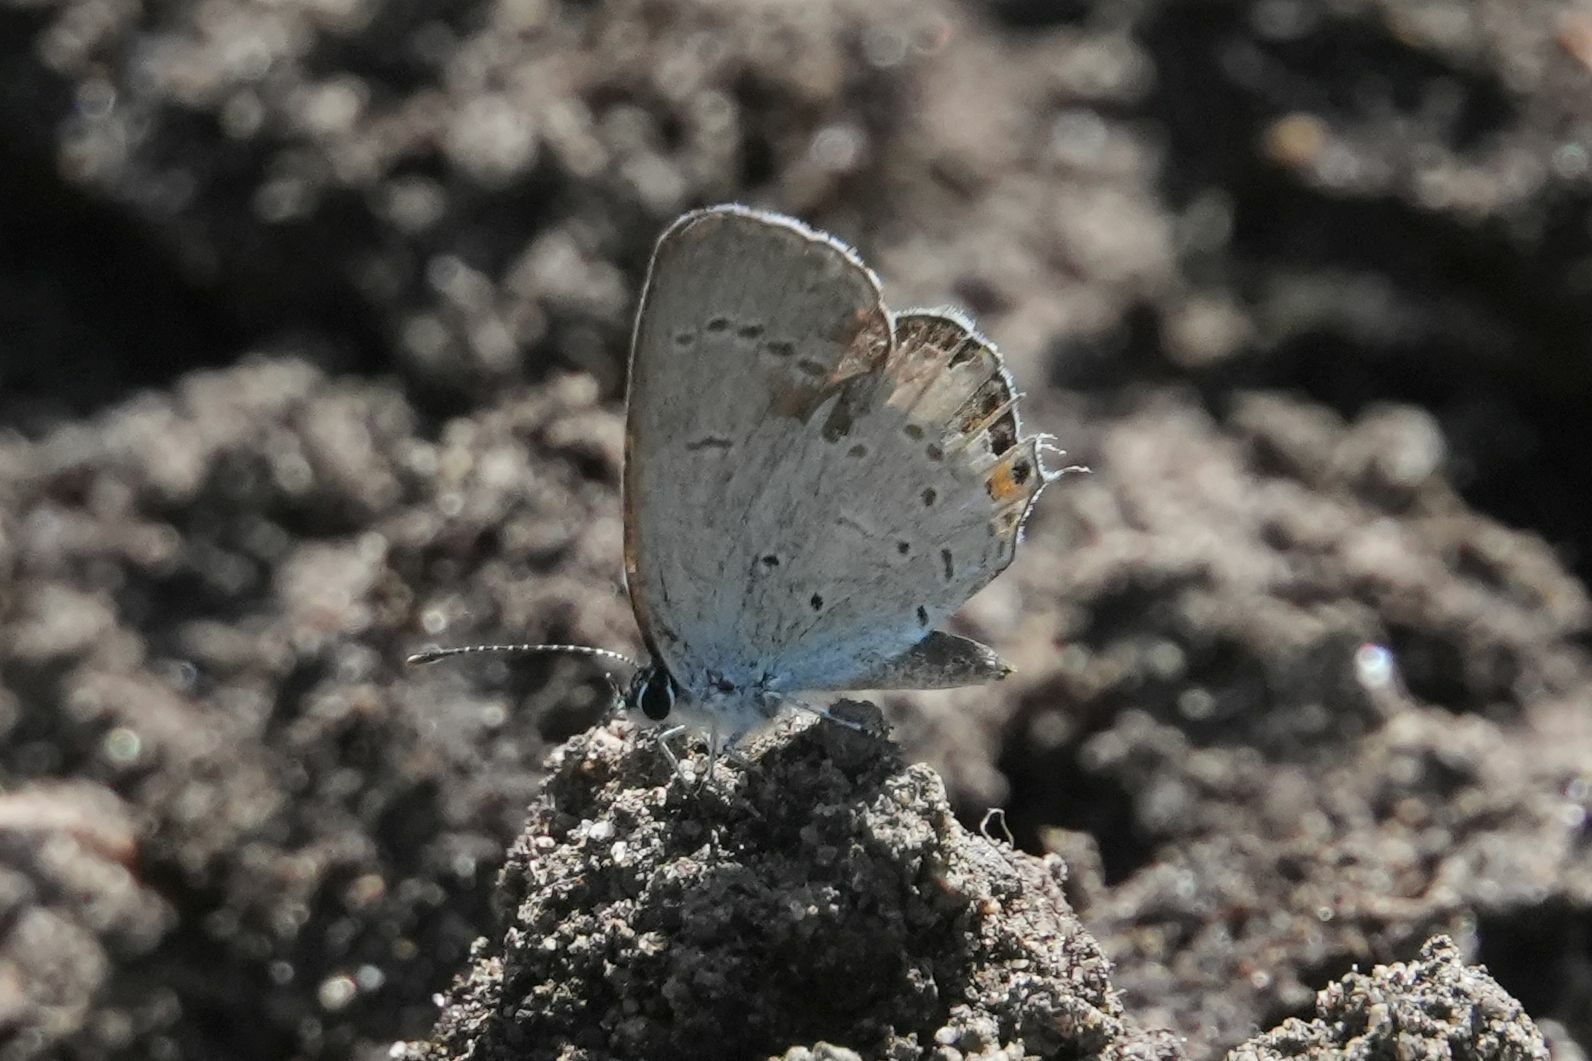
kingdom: Animalia
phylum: Arthropoda
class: Insecta
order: Lepidoptera
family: Lycaenidae
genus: Elkalyce
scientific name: Elkalyce comyntas
